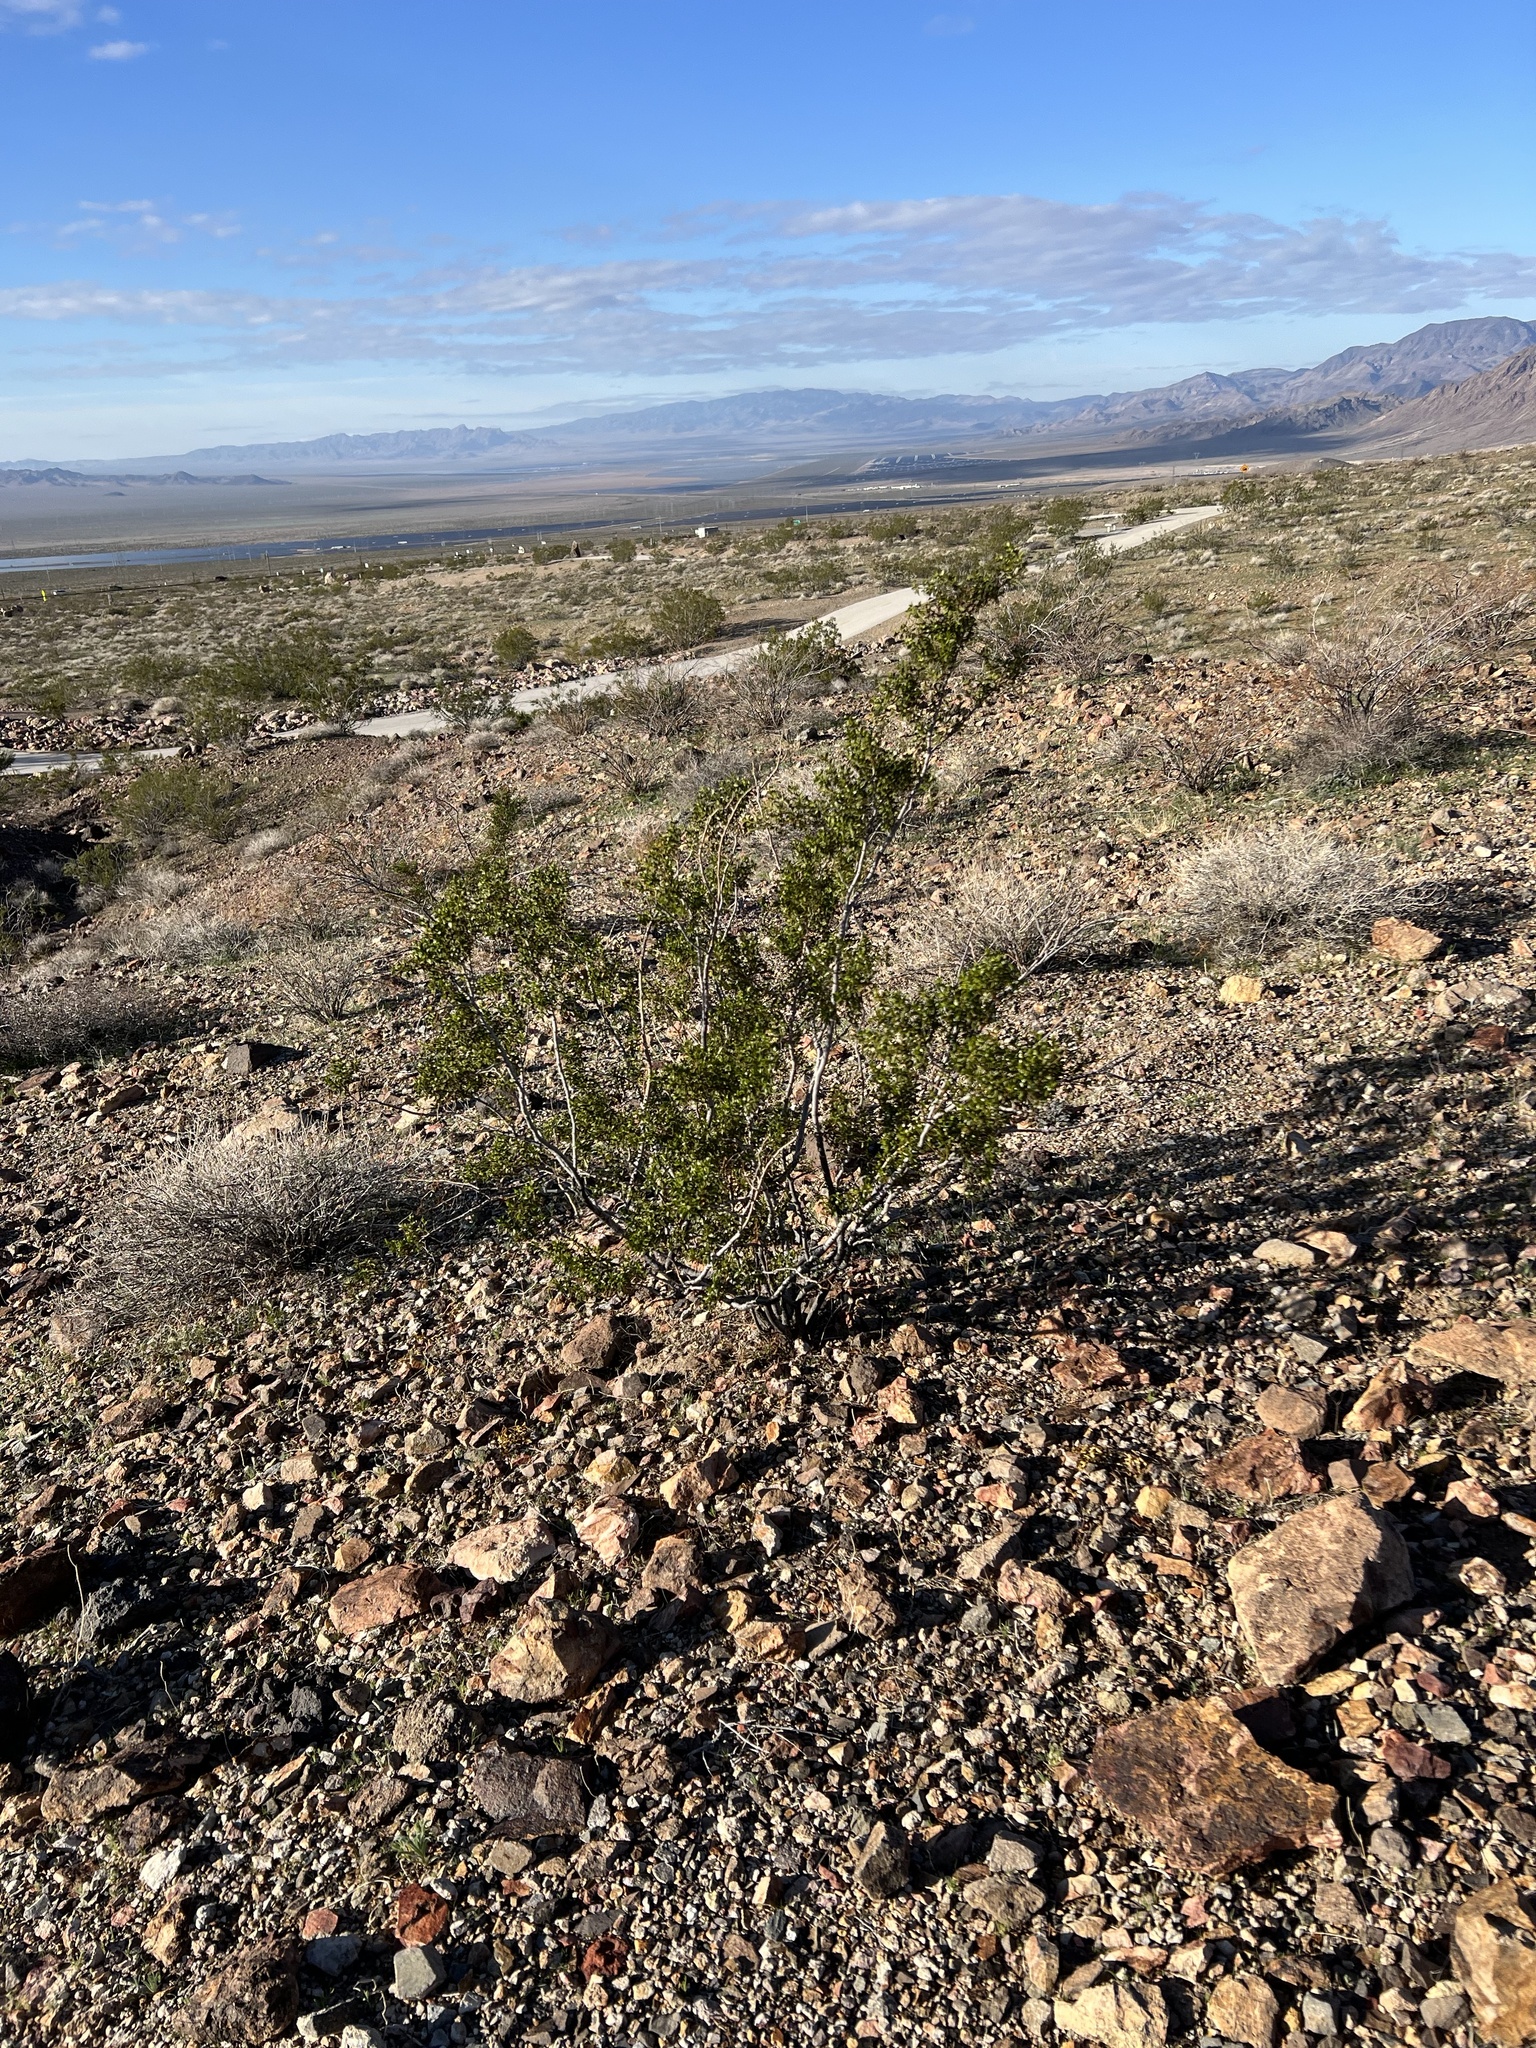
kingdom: Plantae
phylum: Tracheophyta
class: Magnoliopsida
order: Zygophyllales
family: Zygophyllaceae
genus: Larrea
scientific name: Larrea tridentata
